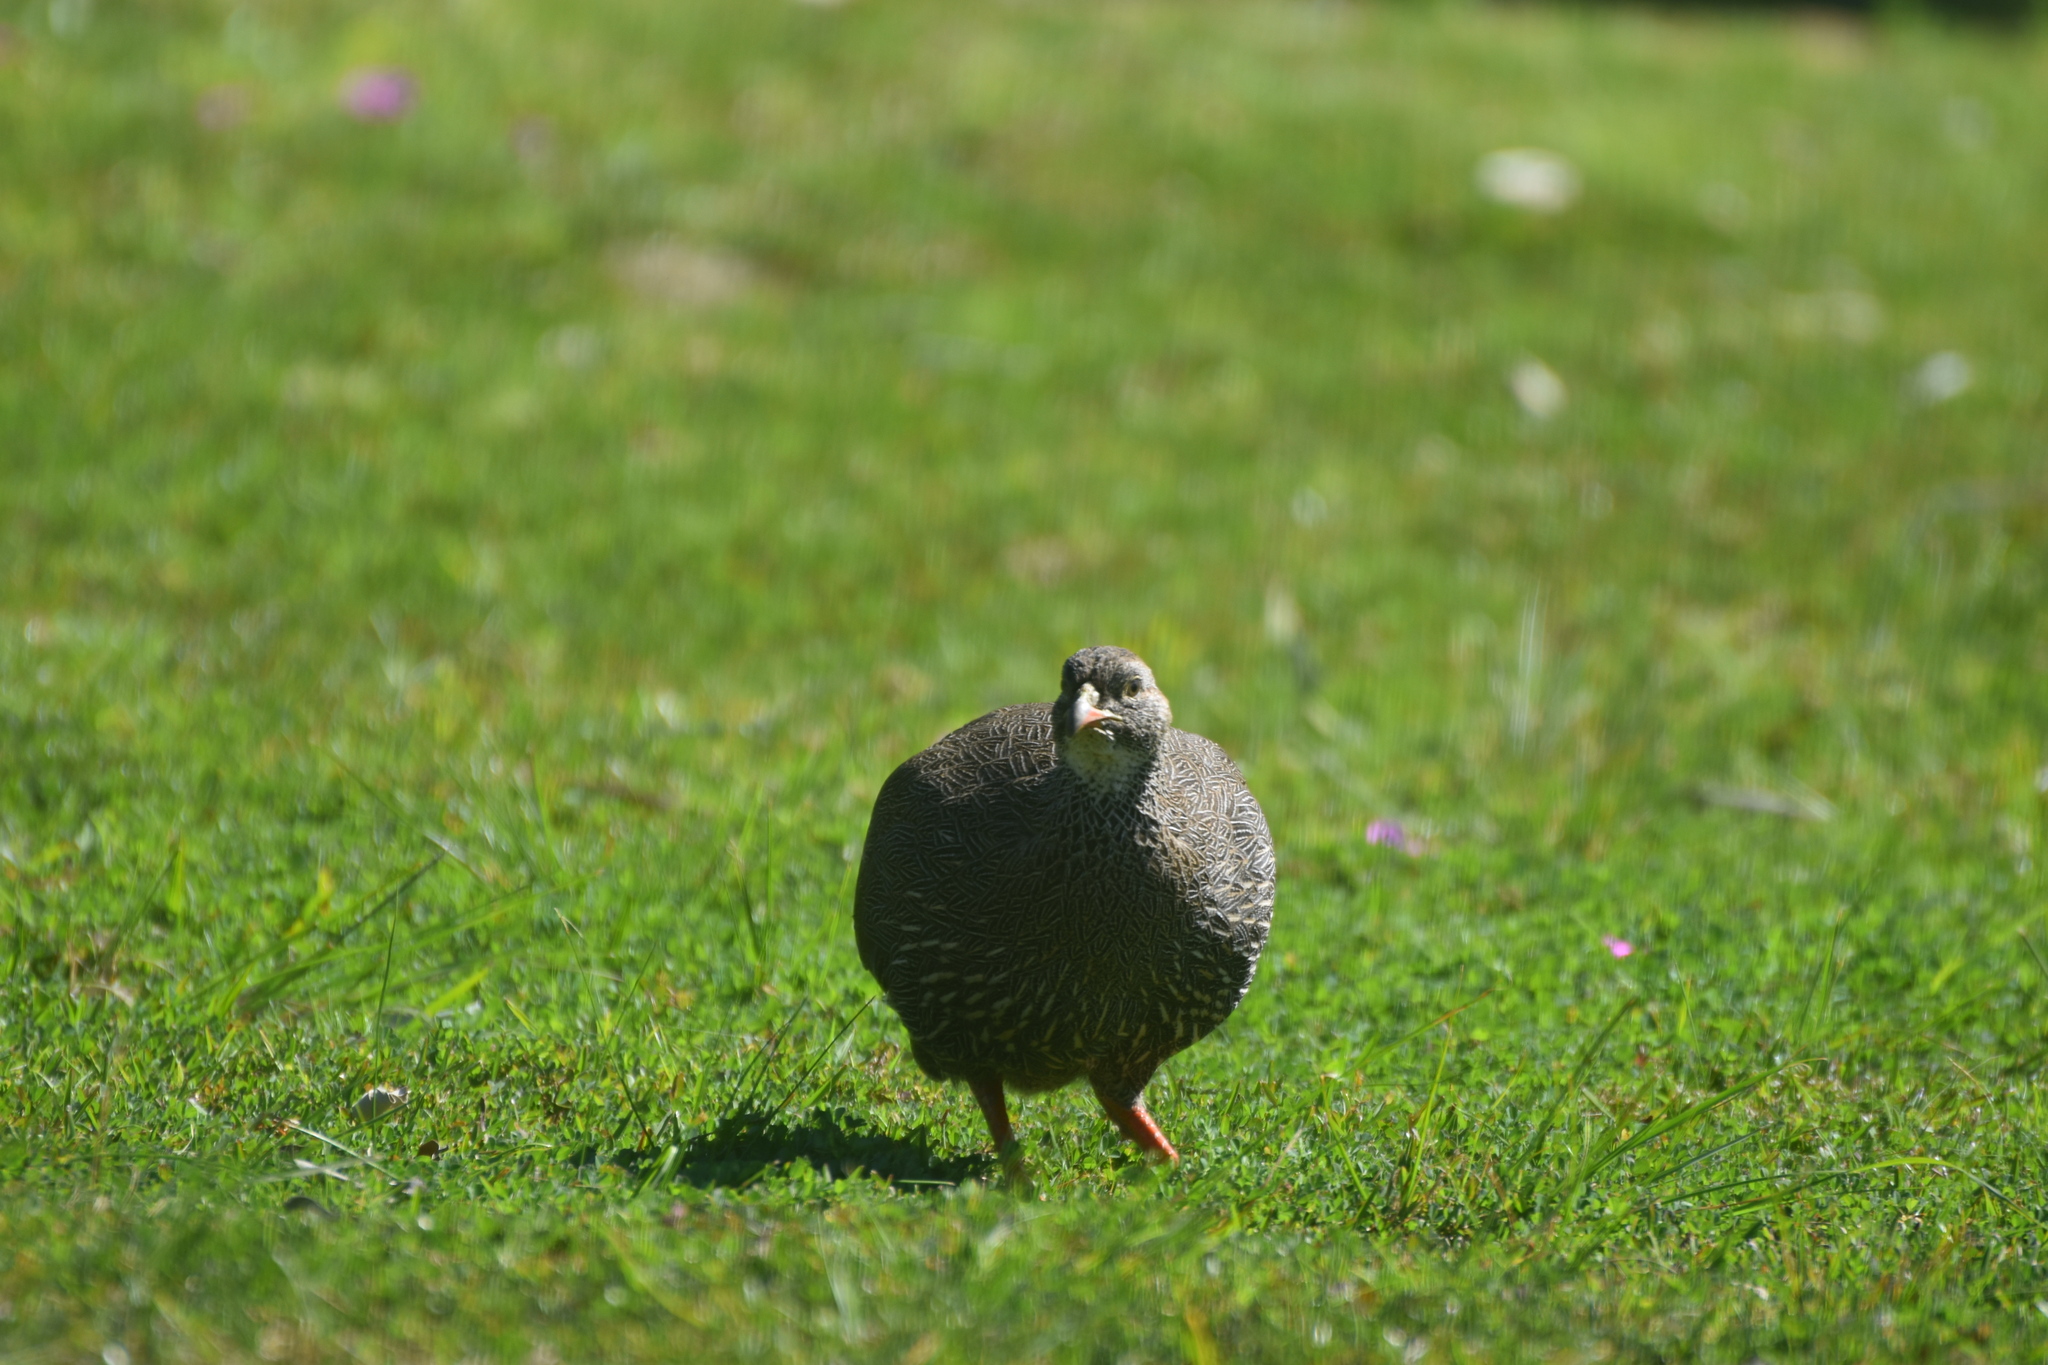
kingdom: Animalia
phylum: Chordata
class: Aves
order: Galliformes
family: Phasianidae
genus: Pternistis
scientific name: Pternistis capensis
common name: Cape spurfowl
